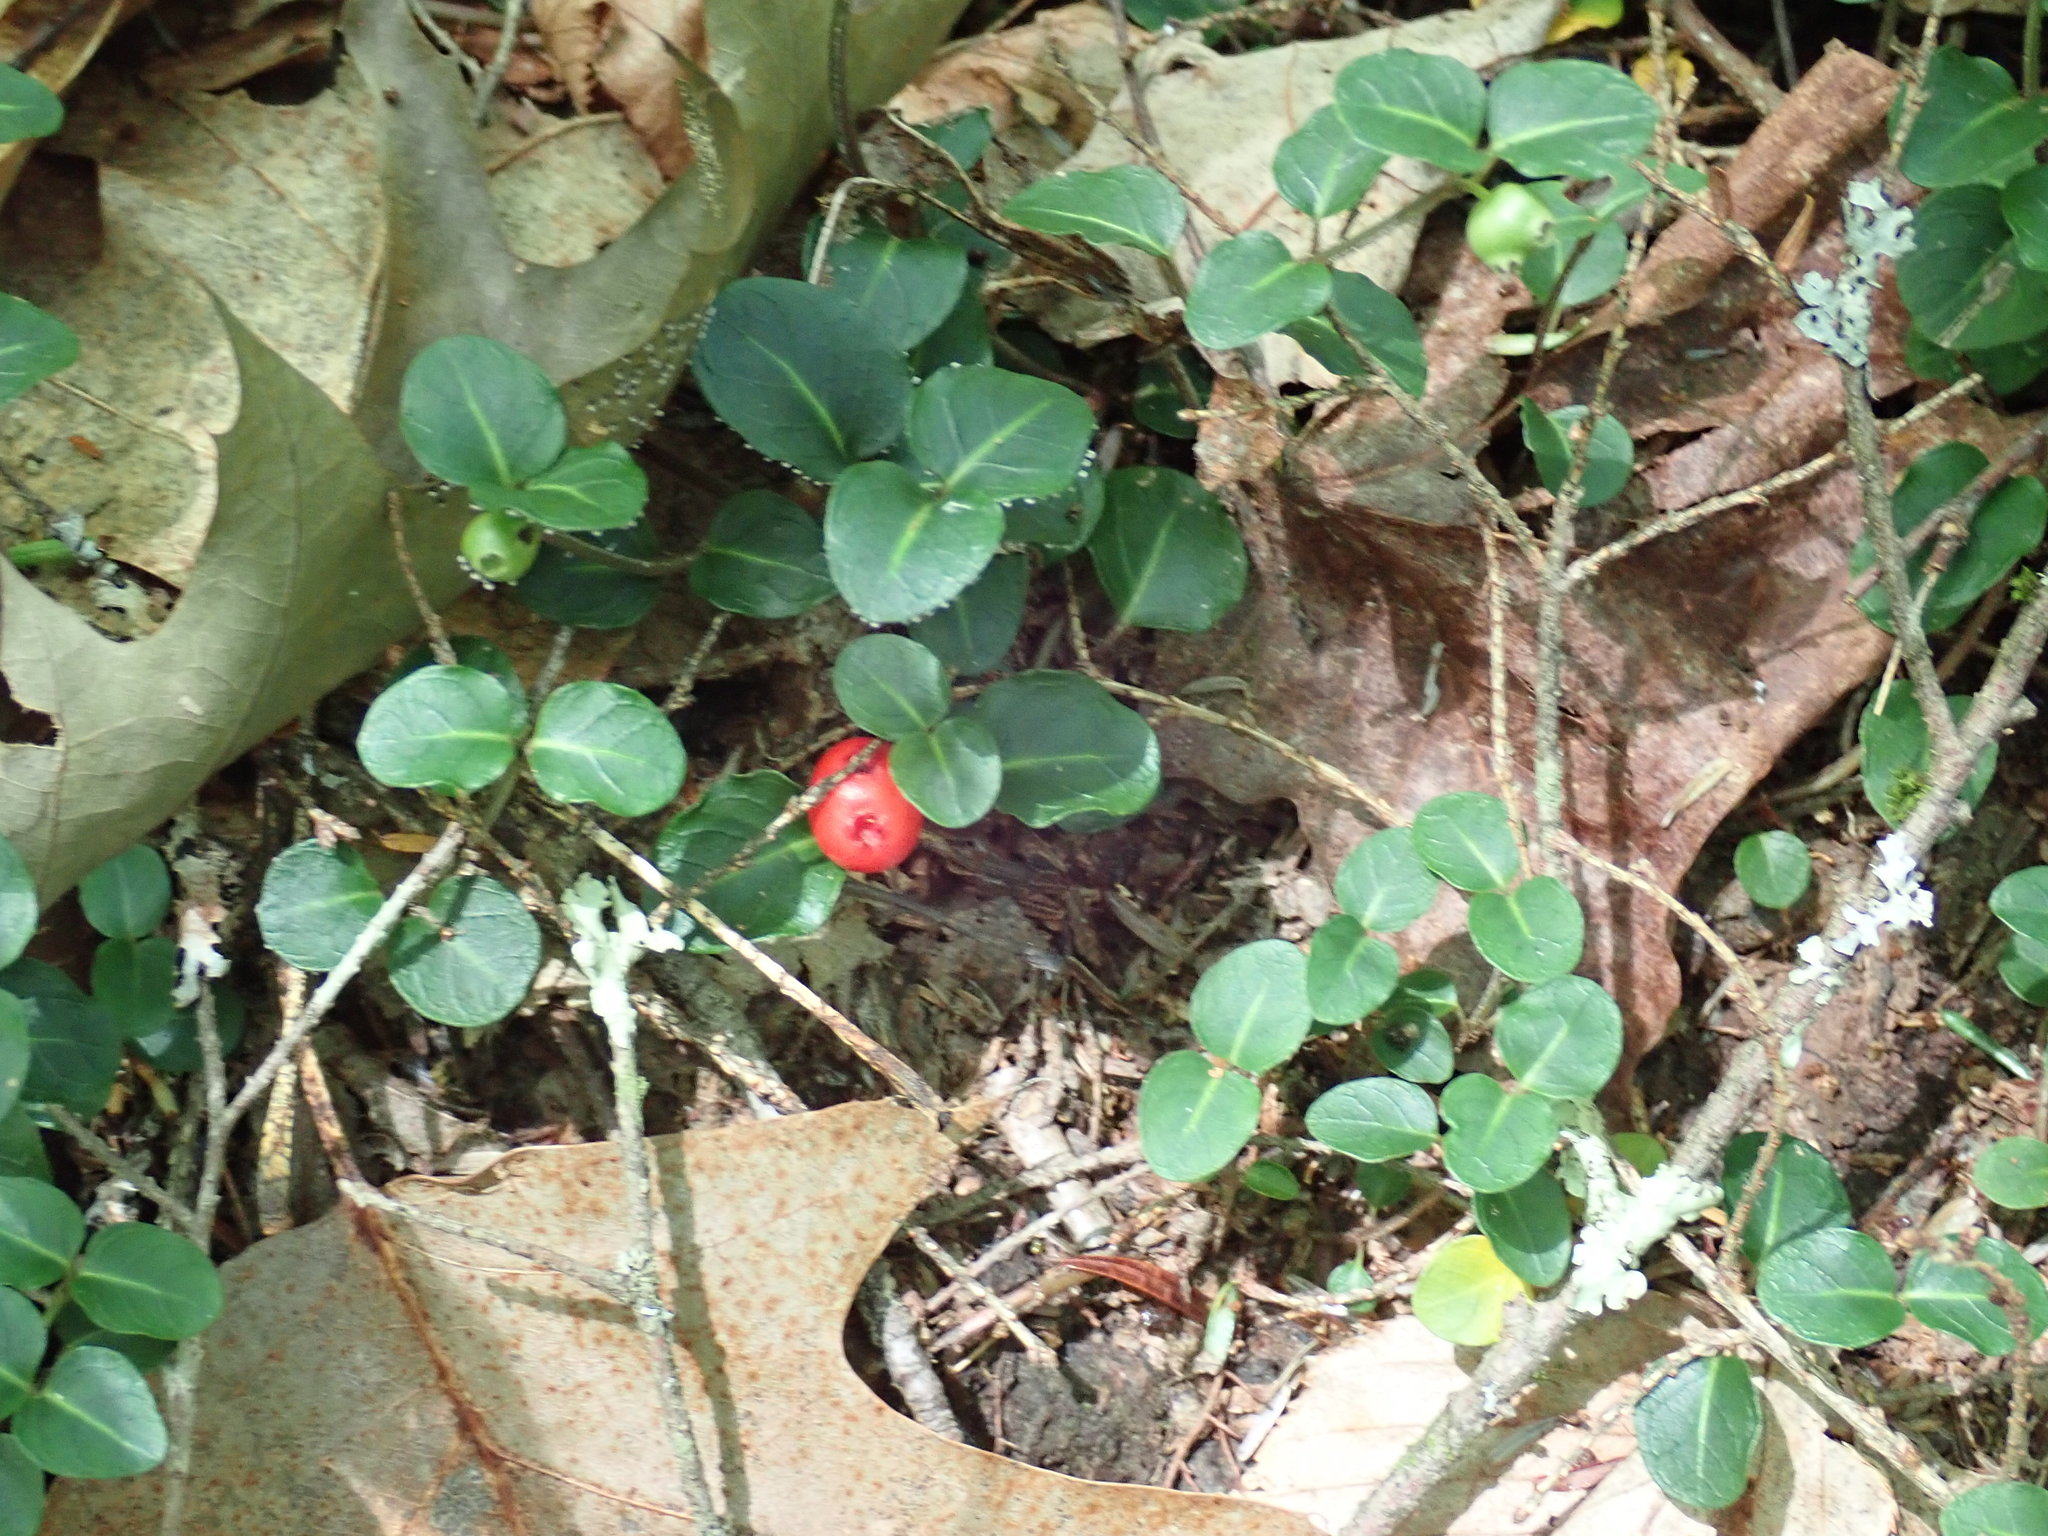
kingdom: Plantae
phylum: Tracheophyta
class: Magnoliopsida
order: Gentianales
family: Rubiaceae
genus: Mitchella
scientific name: Mitchella repens
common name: Partridge-berry
